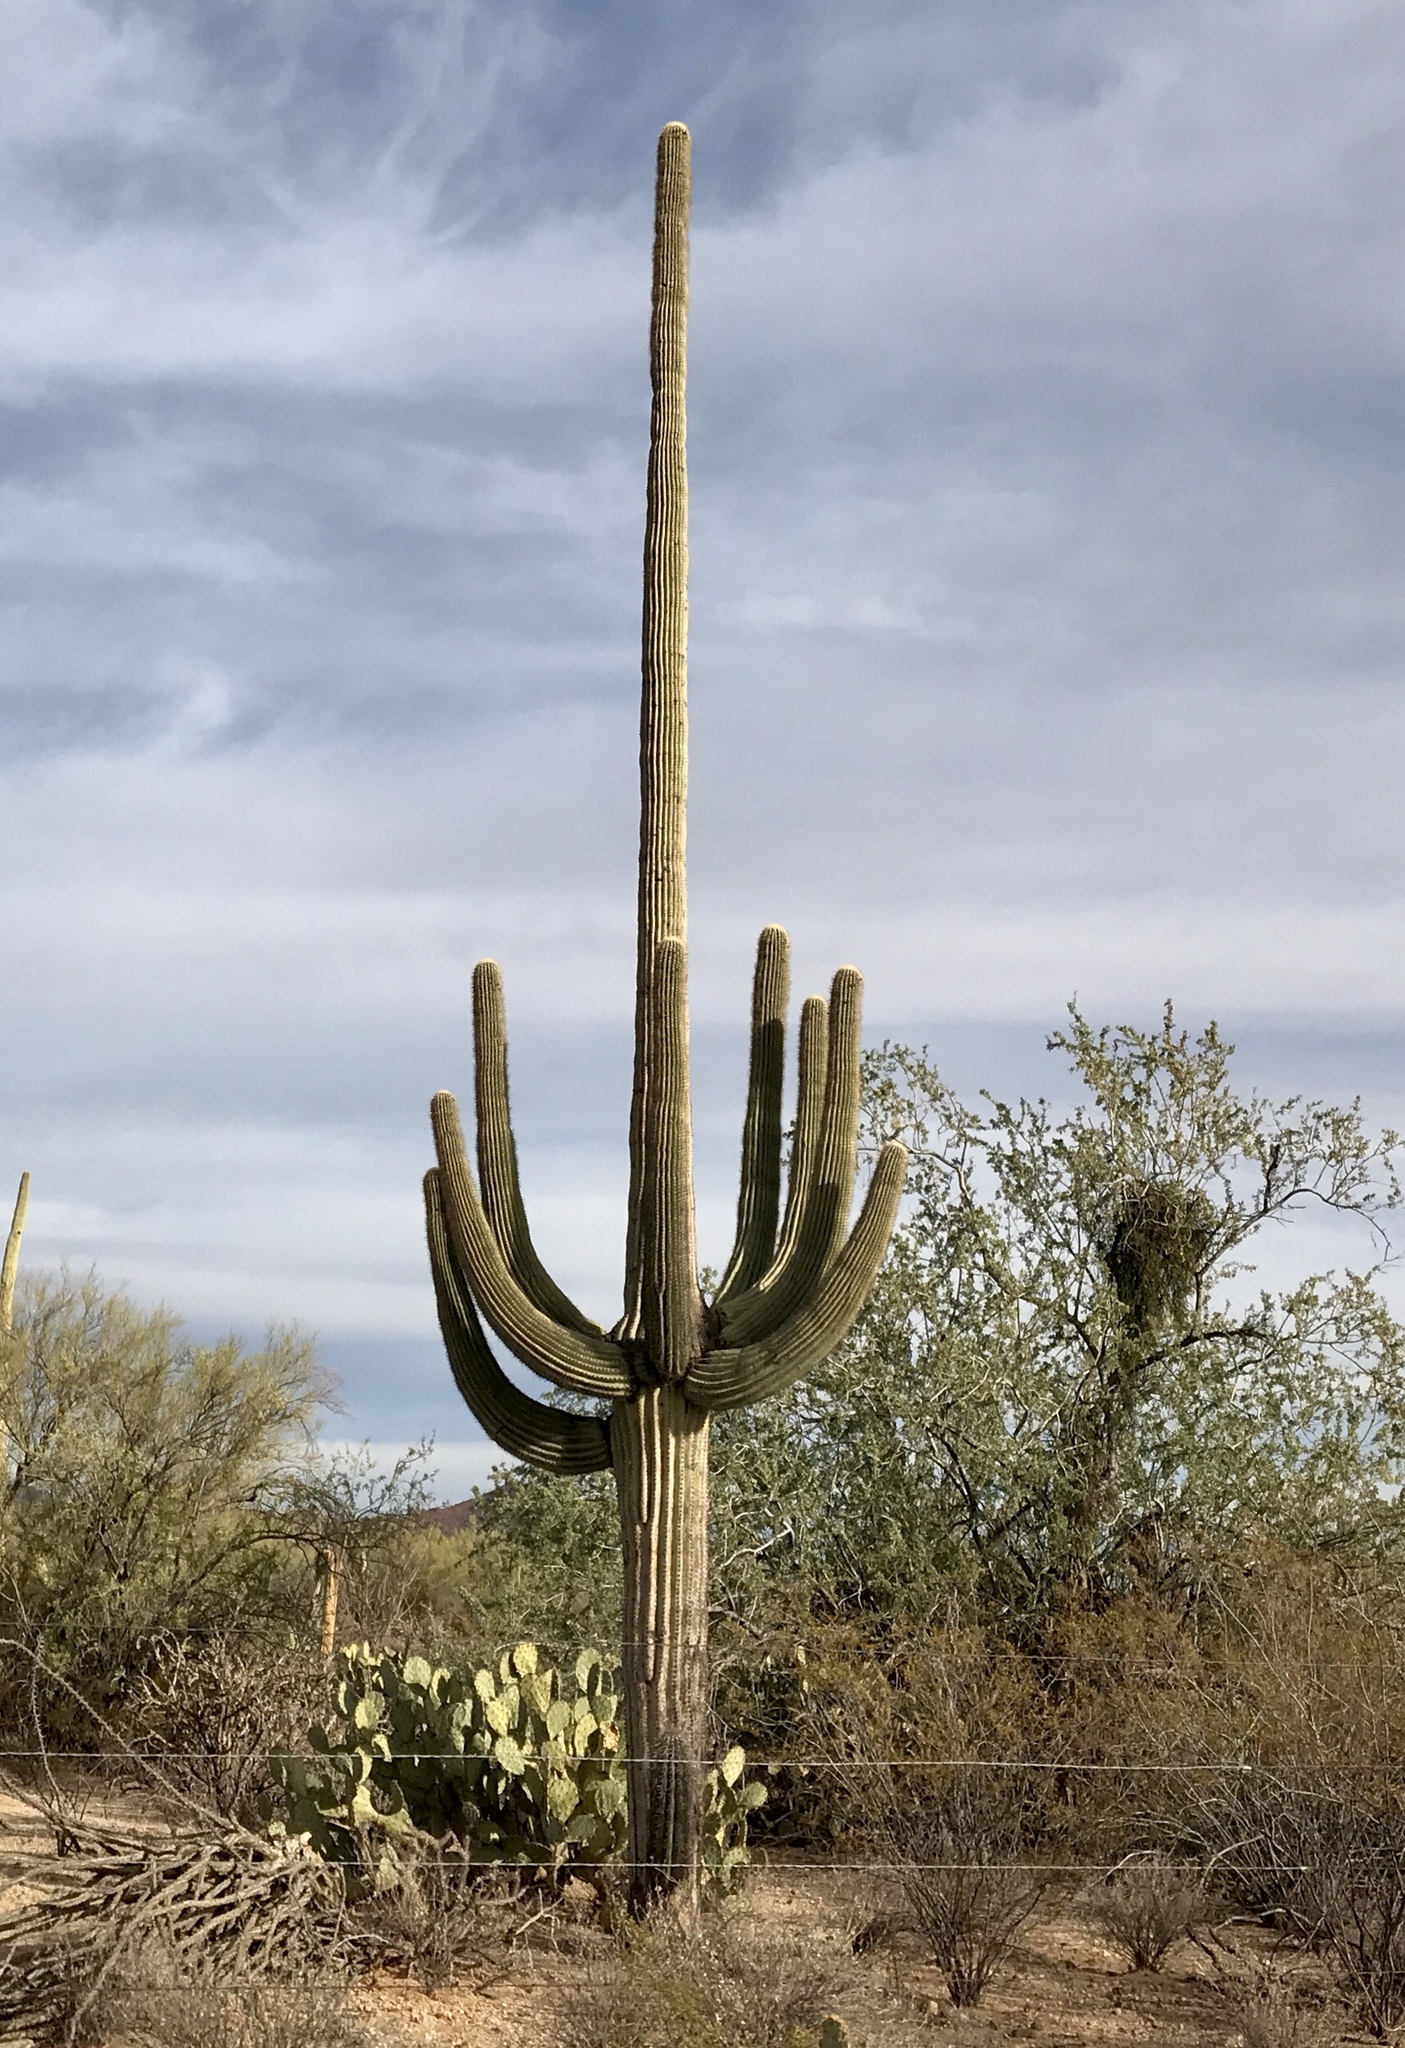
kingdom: Plantae
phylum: Tracheophyta
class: Magnoliopsida
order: Caryophyllales
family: Cactaceae
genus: Carnegiea
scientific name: Carnegiea gigantea
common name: Saguaro
